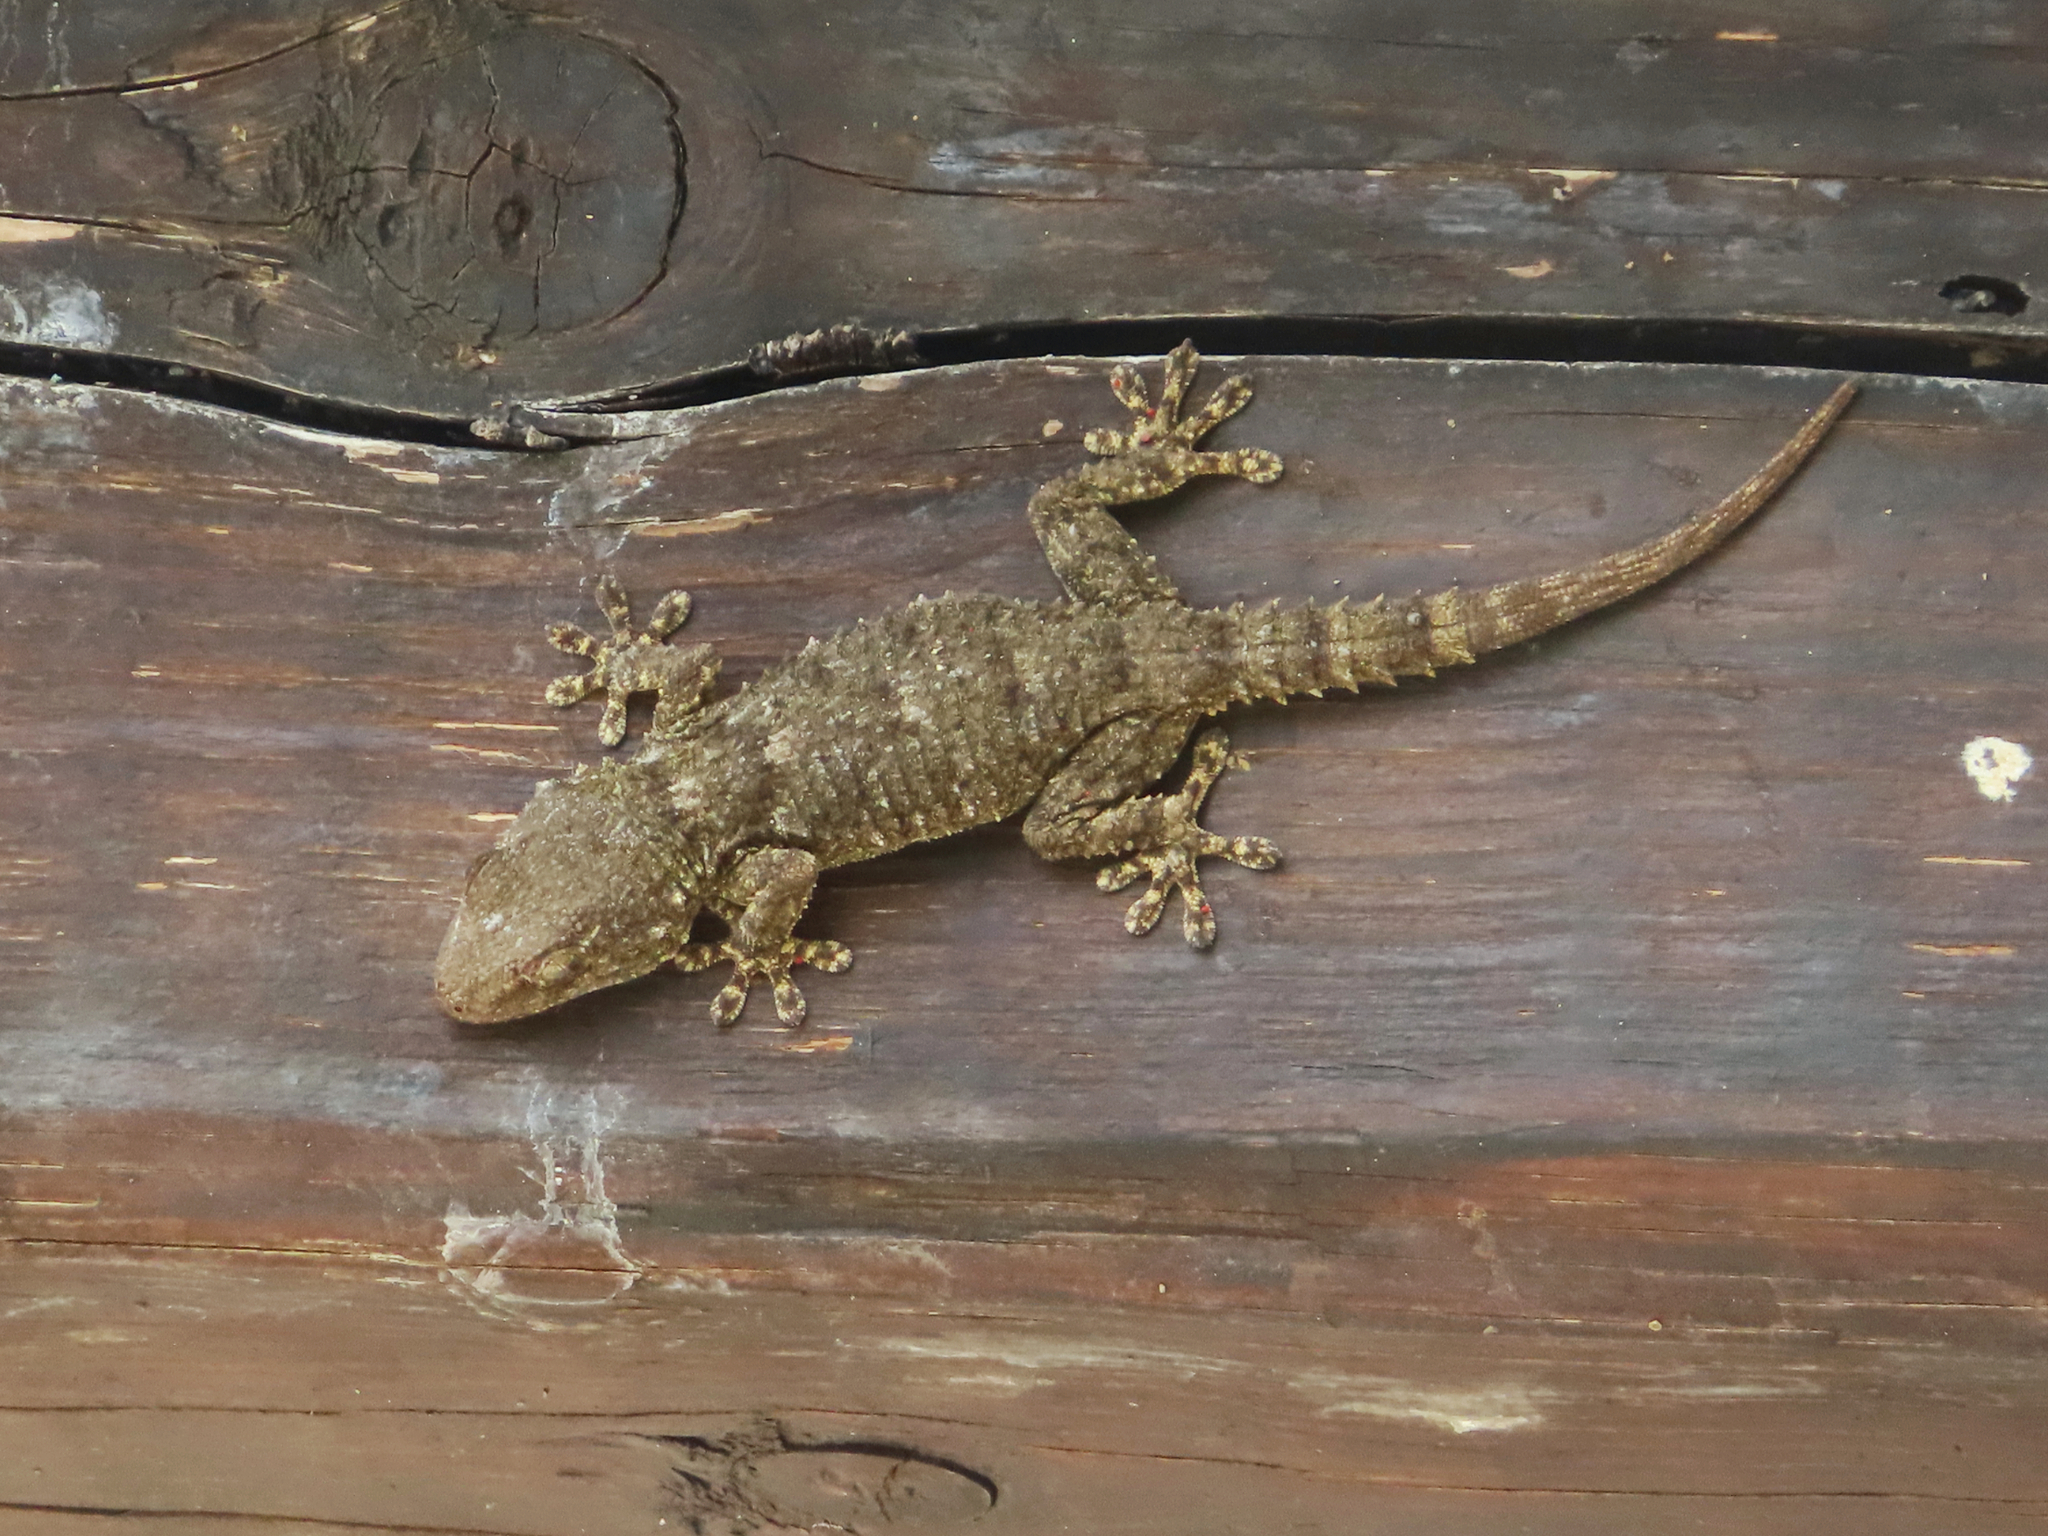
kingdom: Animalia
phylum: Chordata
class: Squamata
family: Phyllodactylidae
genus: Tarentola
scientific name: Tarentola mauritanica
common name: Moorish gecko
